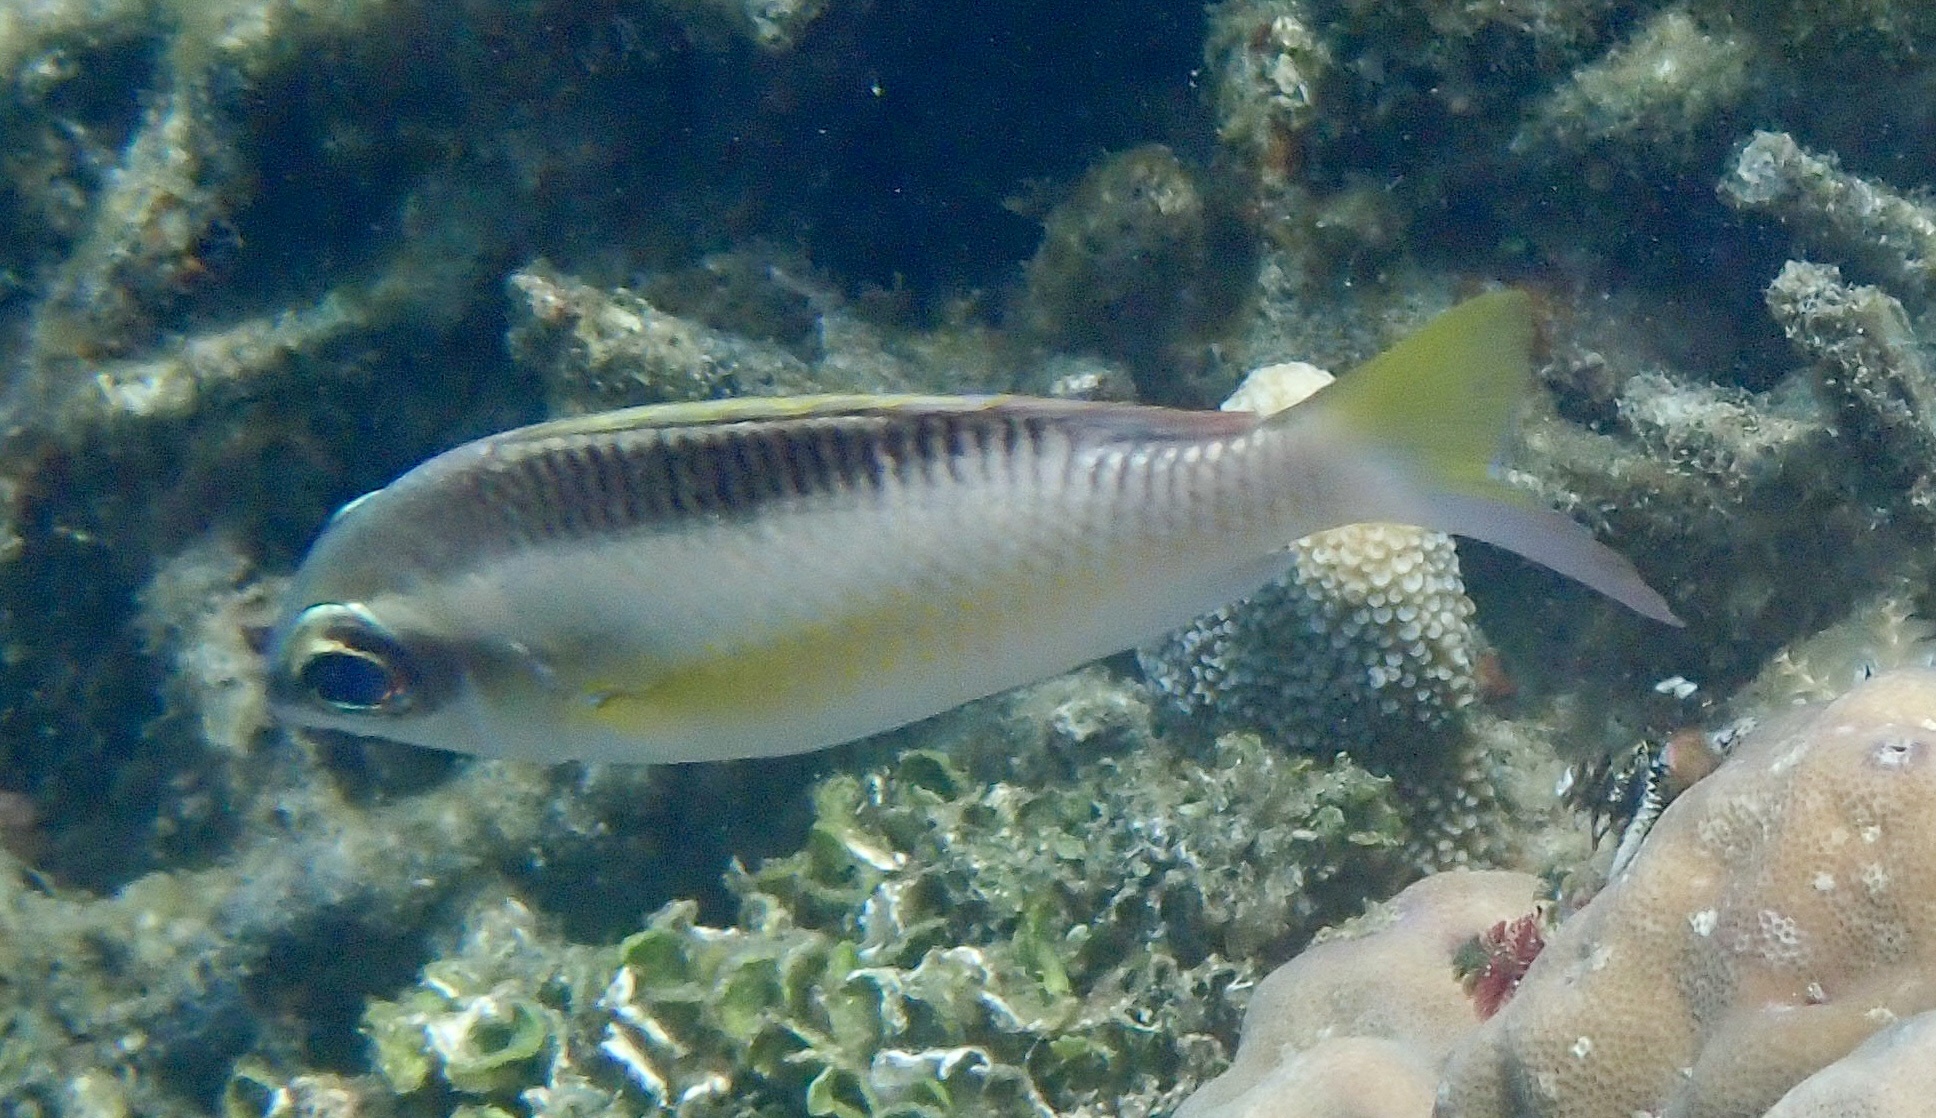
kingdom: Animalia
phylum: Chordata
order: Perciformes
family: Nemipteridae
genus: Scolopsis
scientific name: Scolopsis margaritifera
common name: Pearly monocle bream
